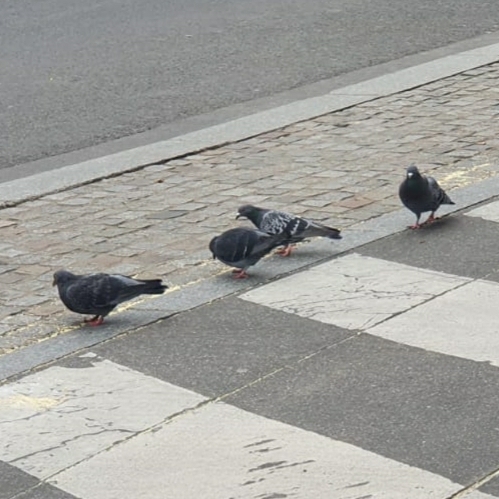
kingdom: Animalia
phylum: Chordata
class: Aves
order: Columbiformes
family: Columbidae
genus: Columba
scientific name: Columba livia
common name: Rock pigeon
